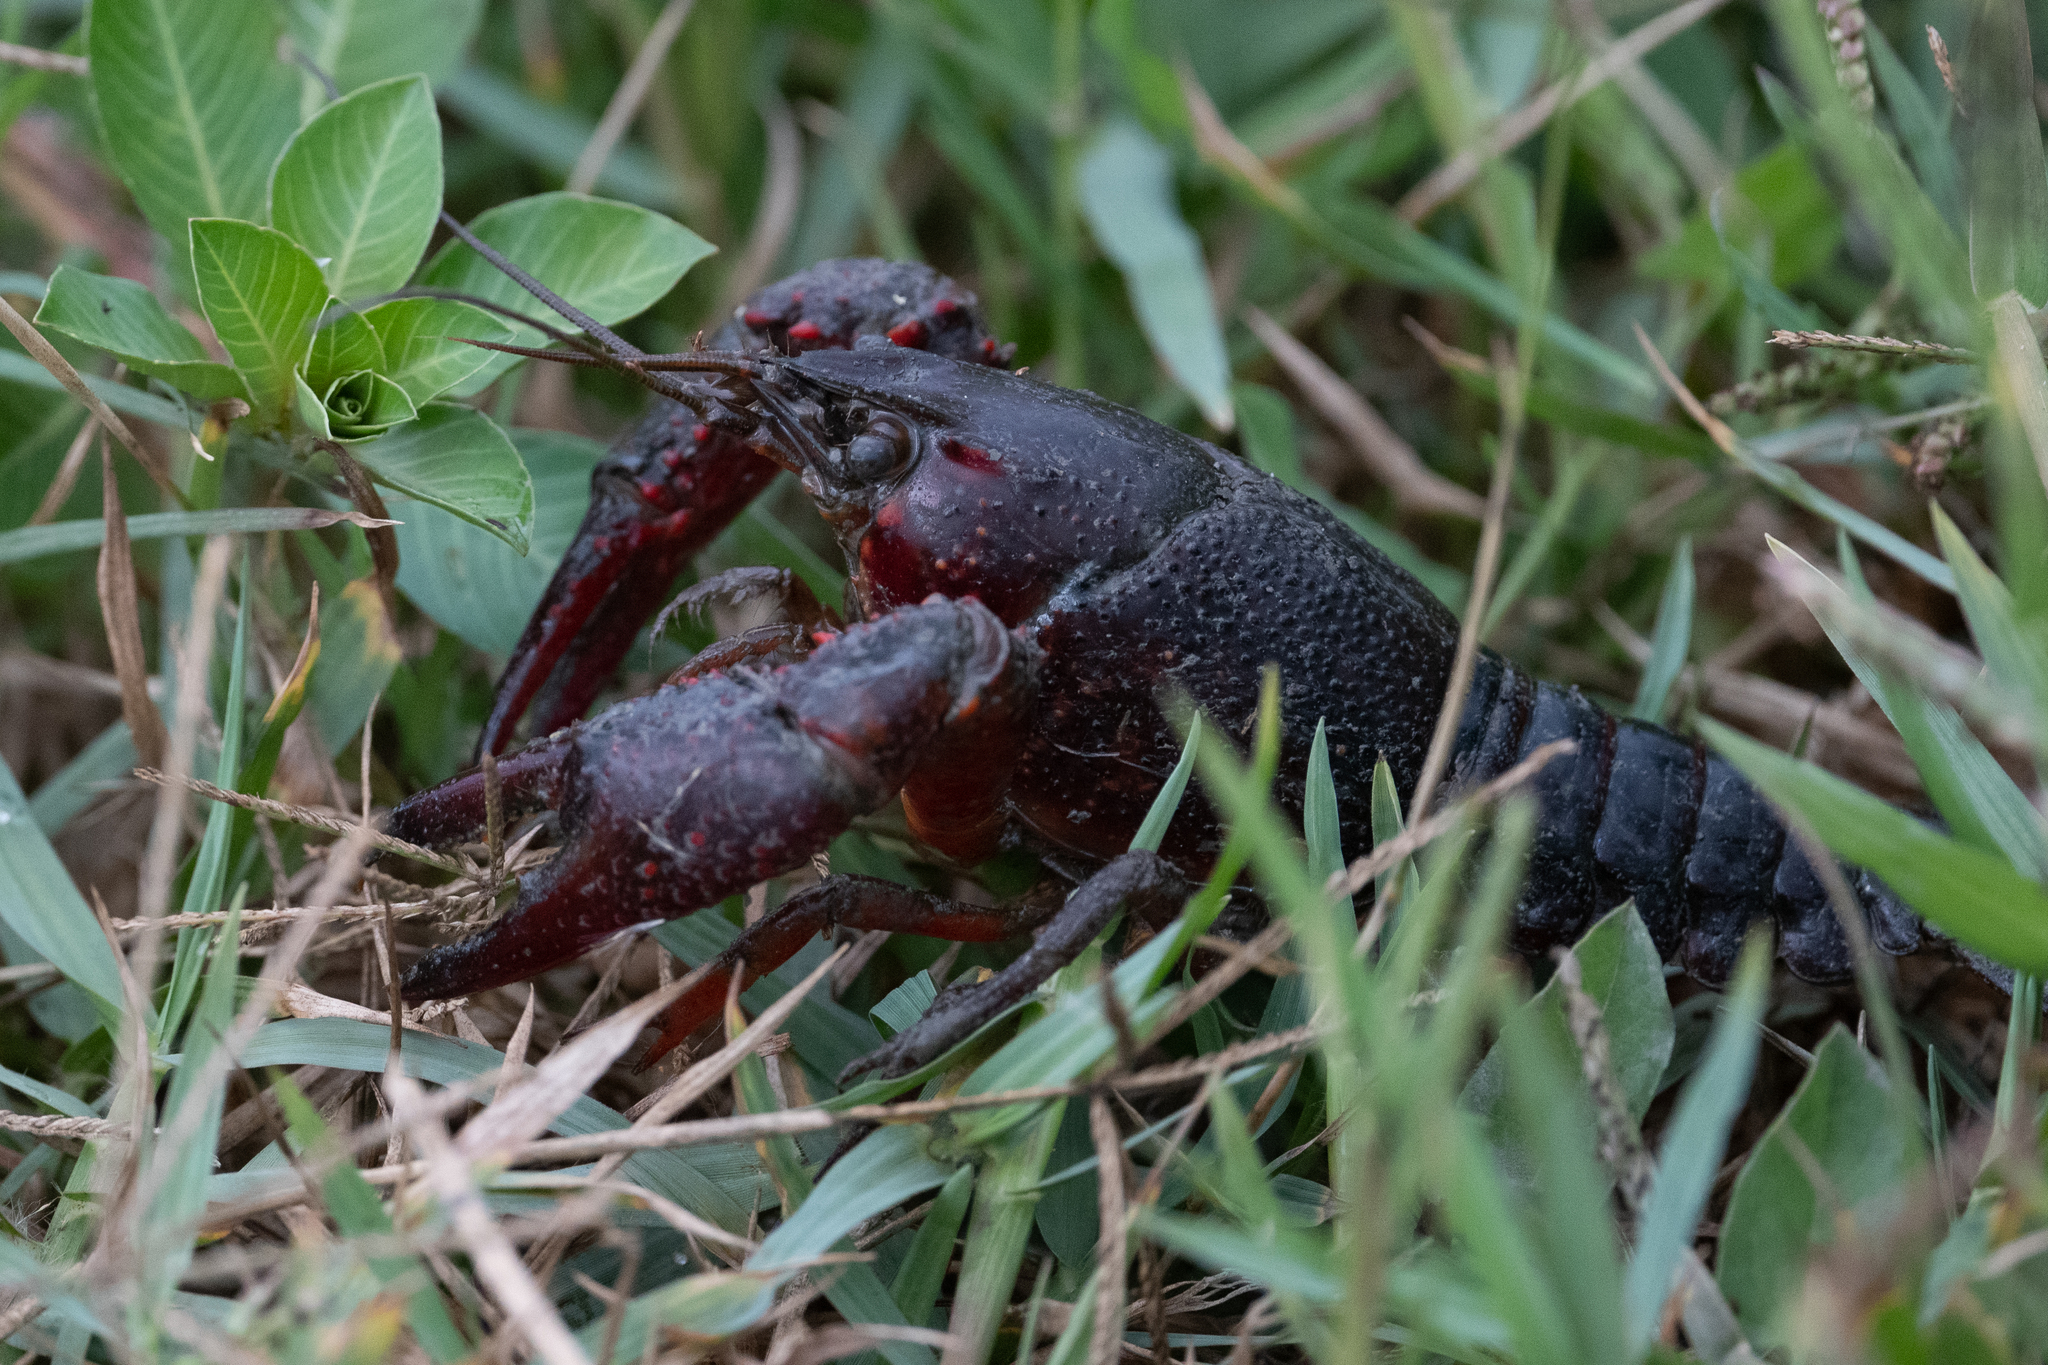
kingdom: Animalia
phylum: Arthropoda
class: Malacostraca
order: Decapoda
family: Cambaridae
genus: Procambarus
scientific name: Procambarus clarkii
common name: Red swamp crayfish
